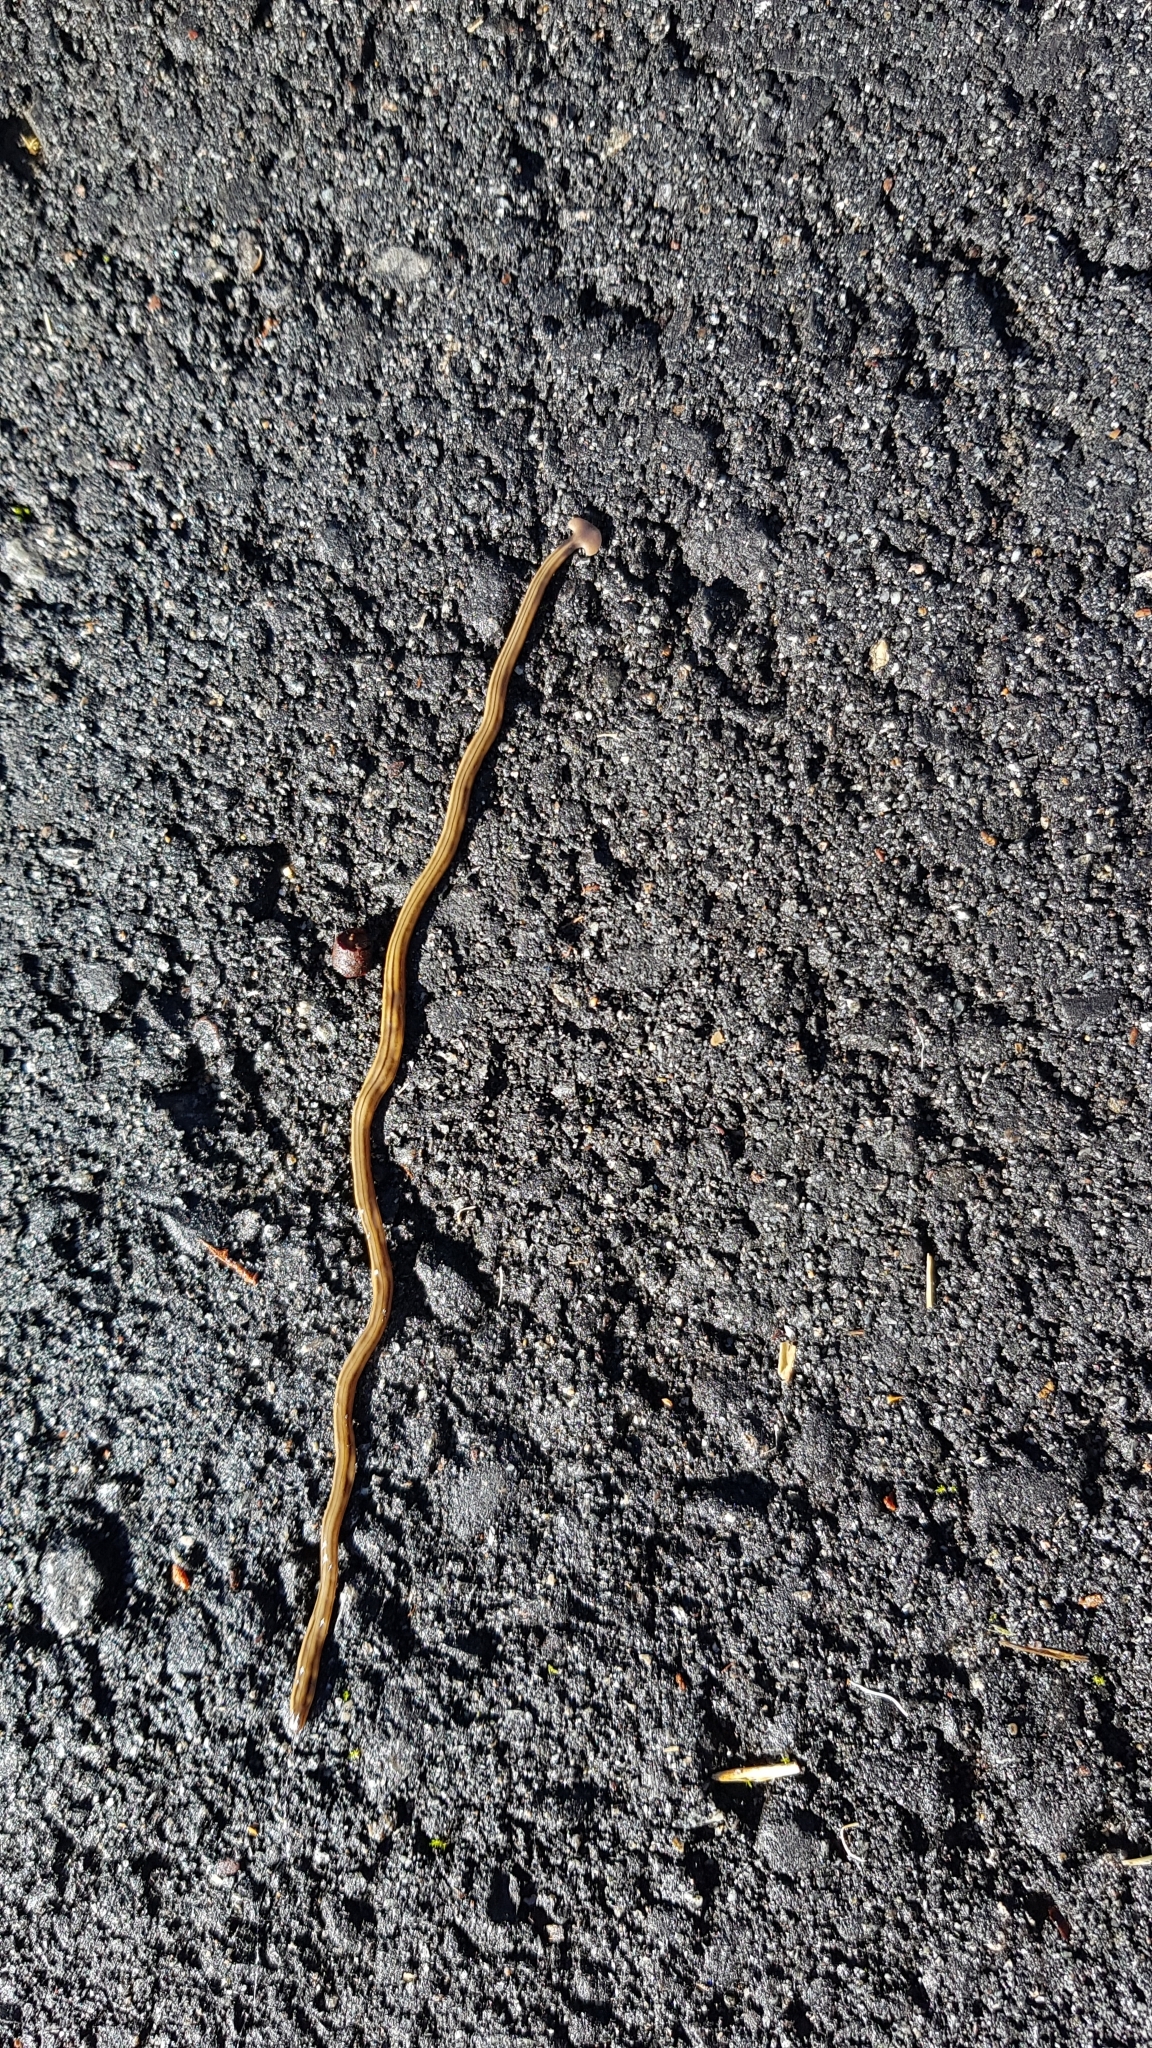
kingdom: Animalia
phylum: Platyhelminthes
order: Tricladida
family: Geoplanidae
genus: Bipalium
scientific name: Bipalium kewense
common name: Hammerhead flatworm
